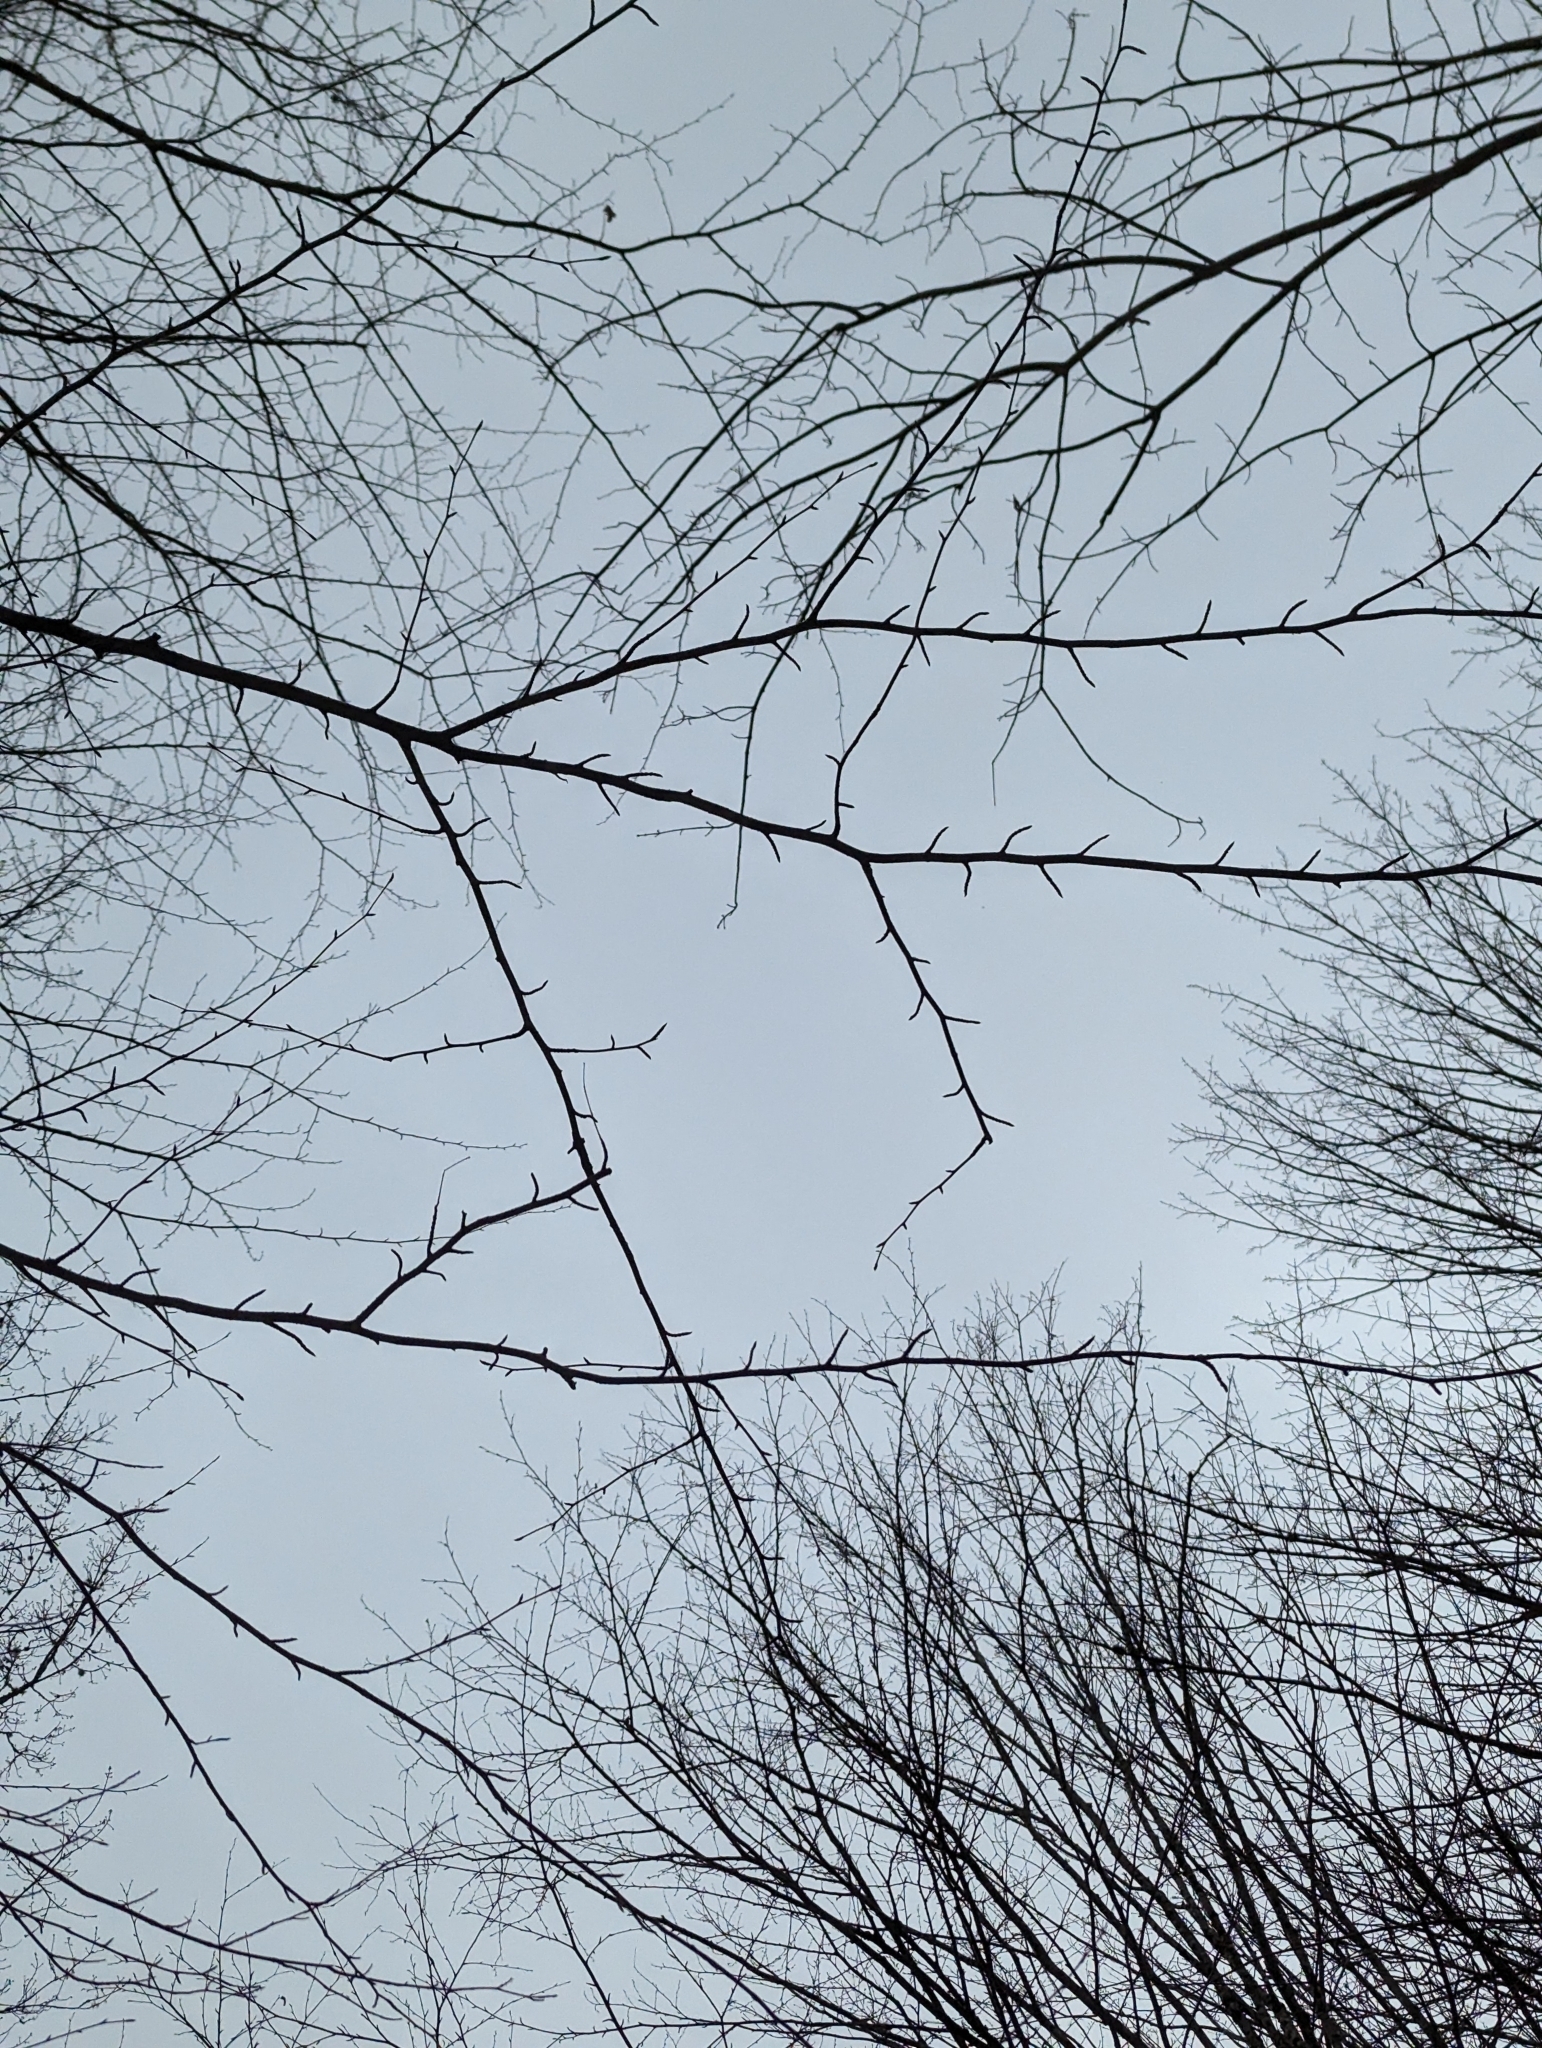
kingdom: Plantae
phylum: Tracheophyta
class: Magnoliopsida
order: Fagales
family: Betulaceae
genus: Betula
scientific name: Betula alleghaniensis
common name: Yellow birch
